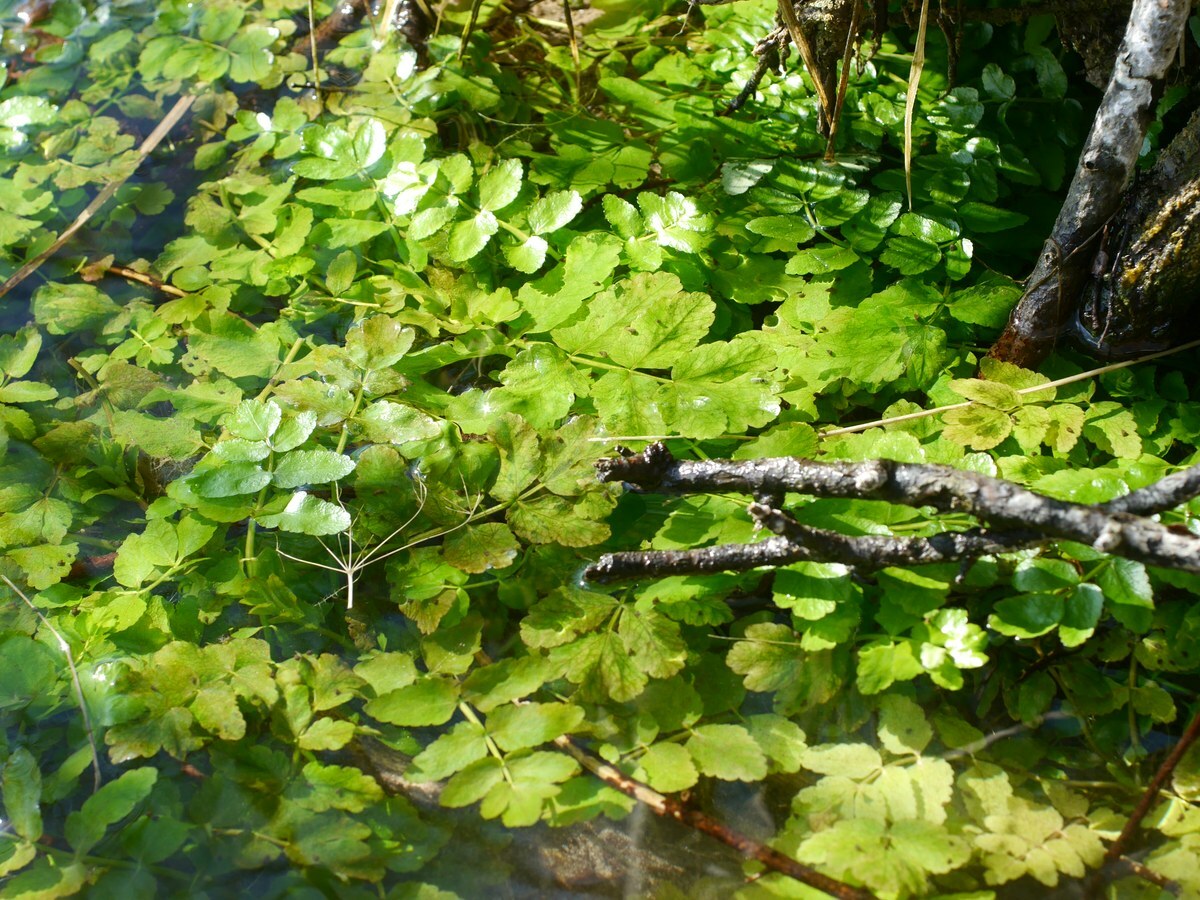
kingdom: Plantae
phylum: Tracheophyta
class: Magnoliopsida
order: Apiales
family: Apiaceae
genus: Berula
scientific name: Berula erecta
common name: Lesser water-parsnip
